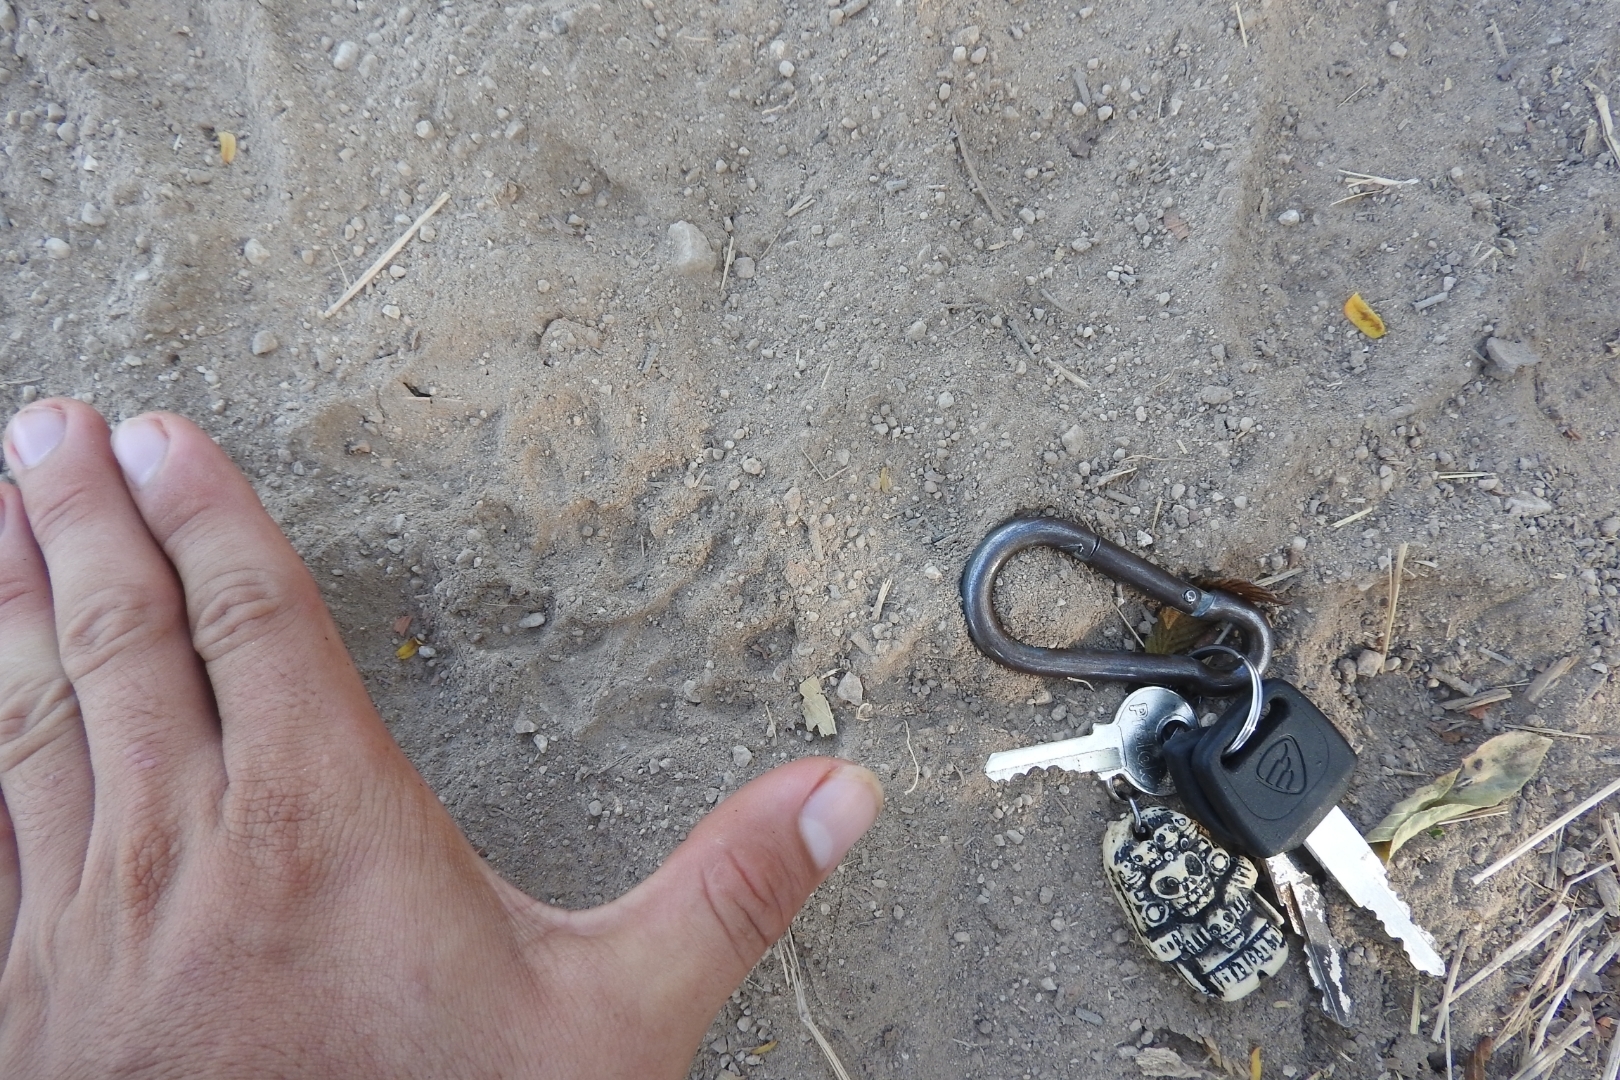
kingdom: Animalia
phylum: Chordata
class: Mammalia
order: Didelphimorphia
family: Didelphidae
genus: Didelphis
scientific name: Didelphis
